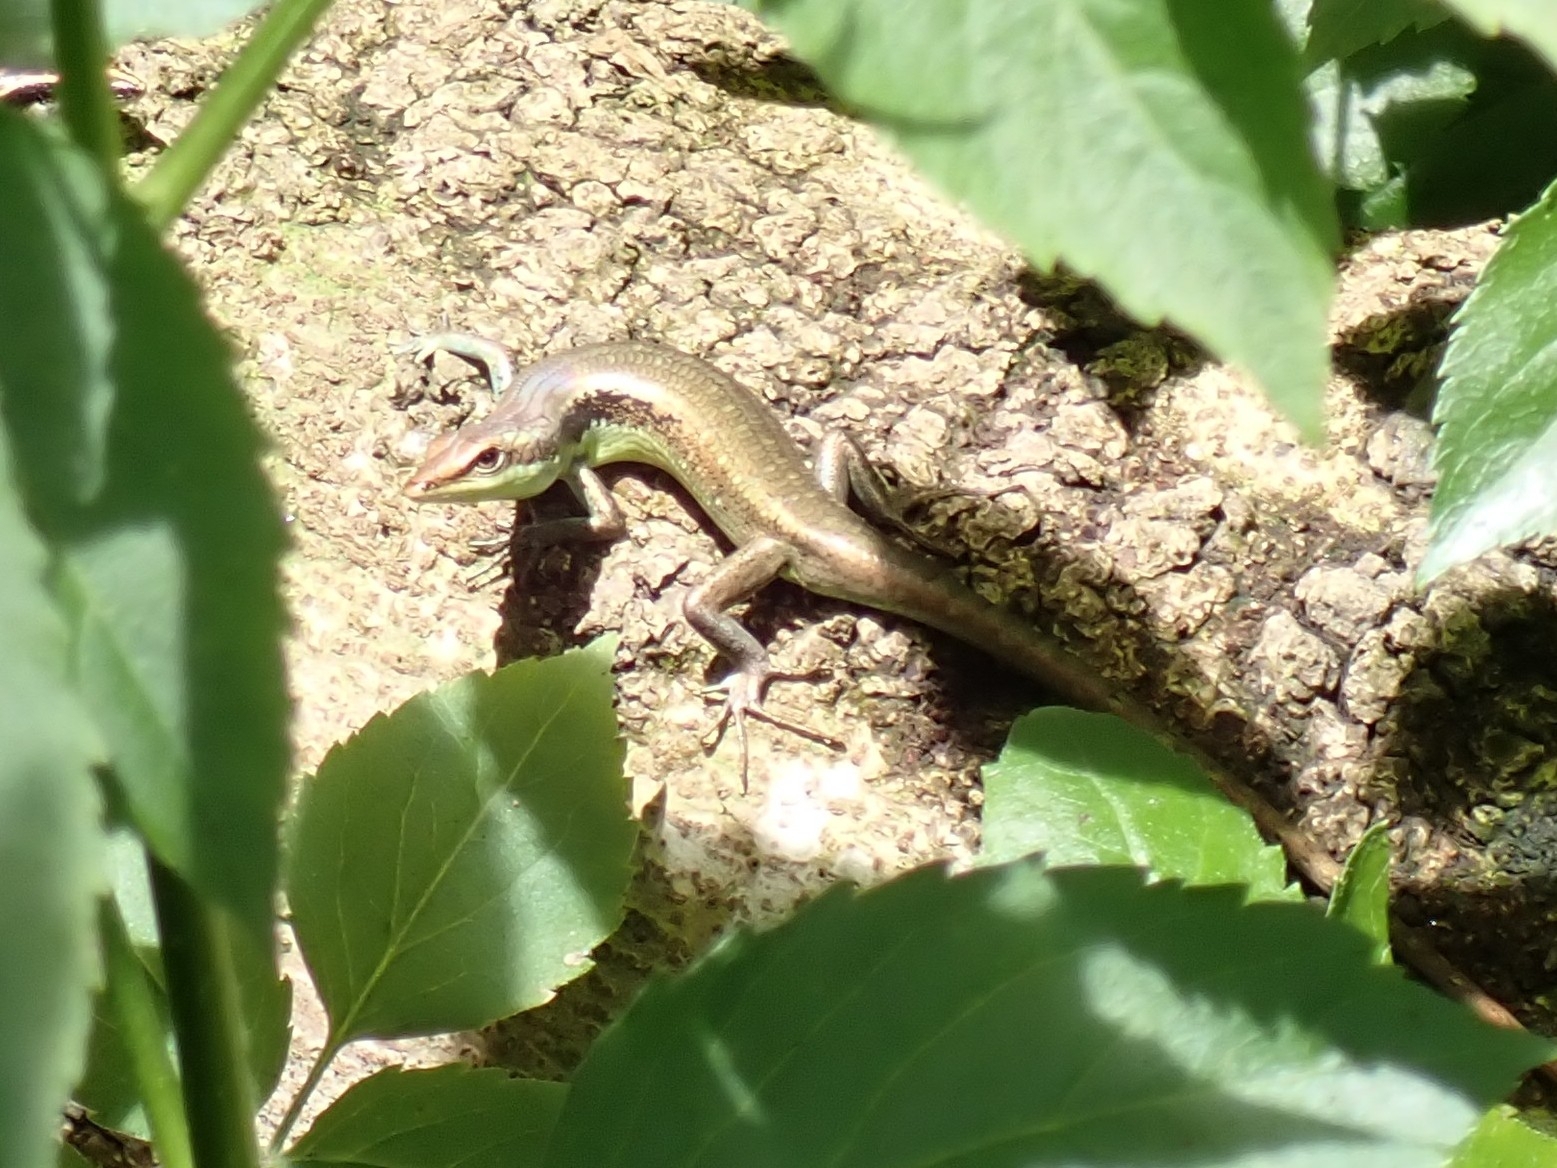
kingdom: Animalia
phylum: Chordata
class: Squamata
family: Scincidae
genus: Emoia
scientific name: Emoia cyanogaster
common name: Teal emo skink
